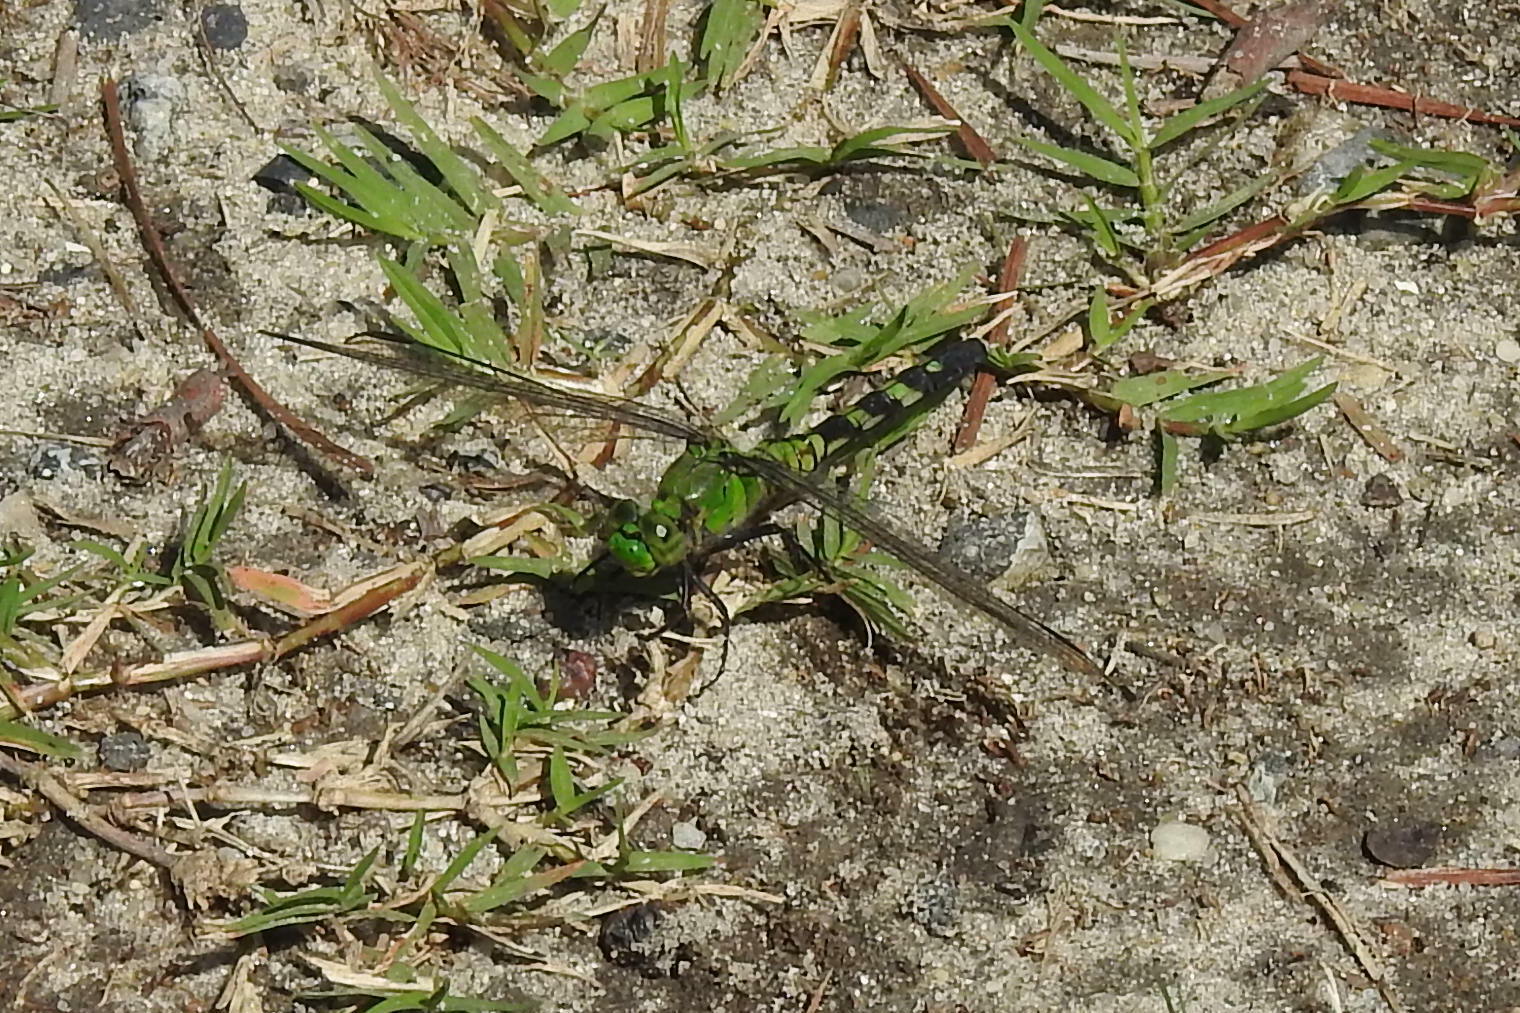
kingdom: Animalia
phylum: Arthropoda
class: Insecta
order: Odonata
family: Libellulidae
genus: Erythemis
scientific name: Erythemis simplicicollis
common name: Eastern pondhawk
